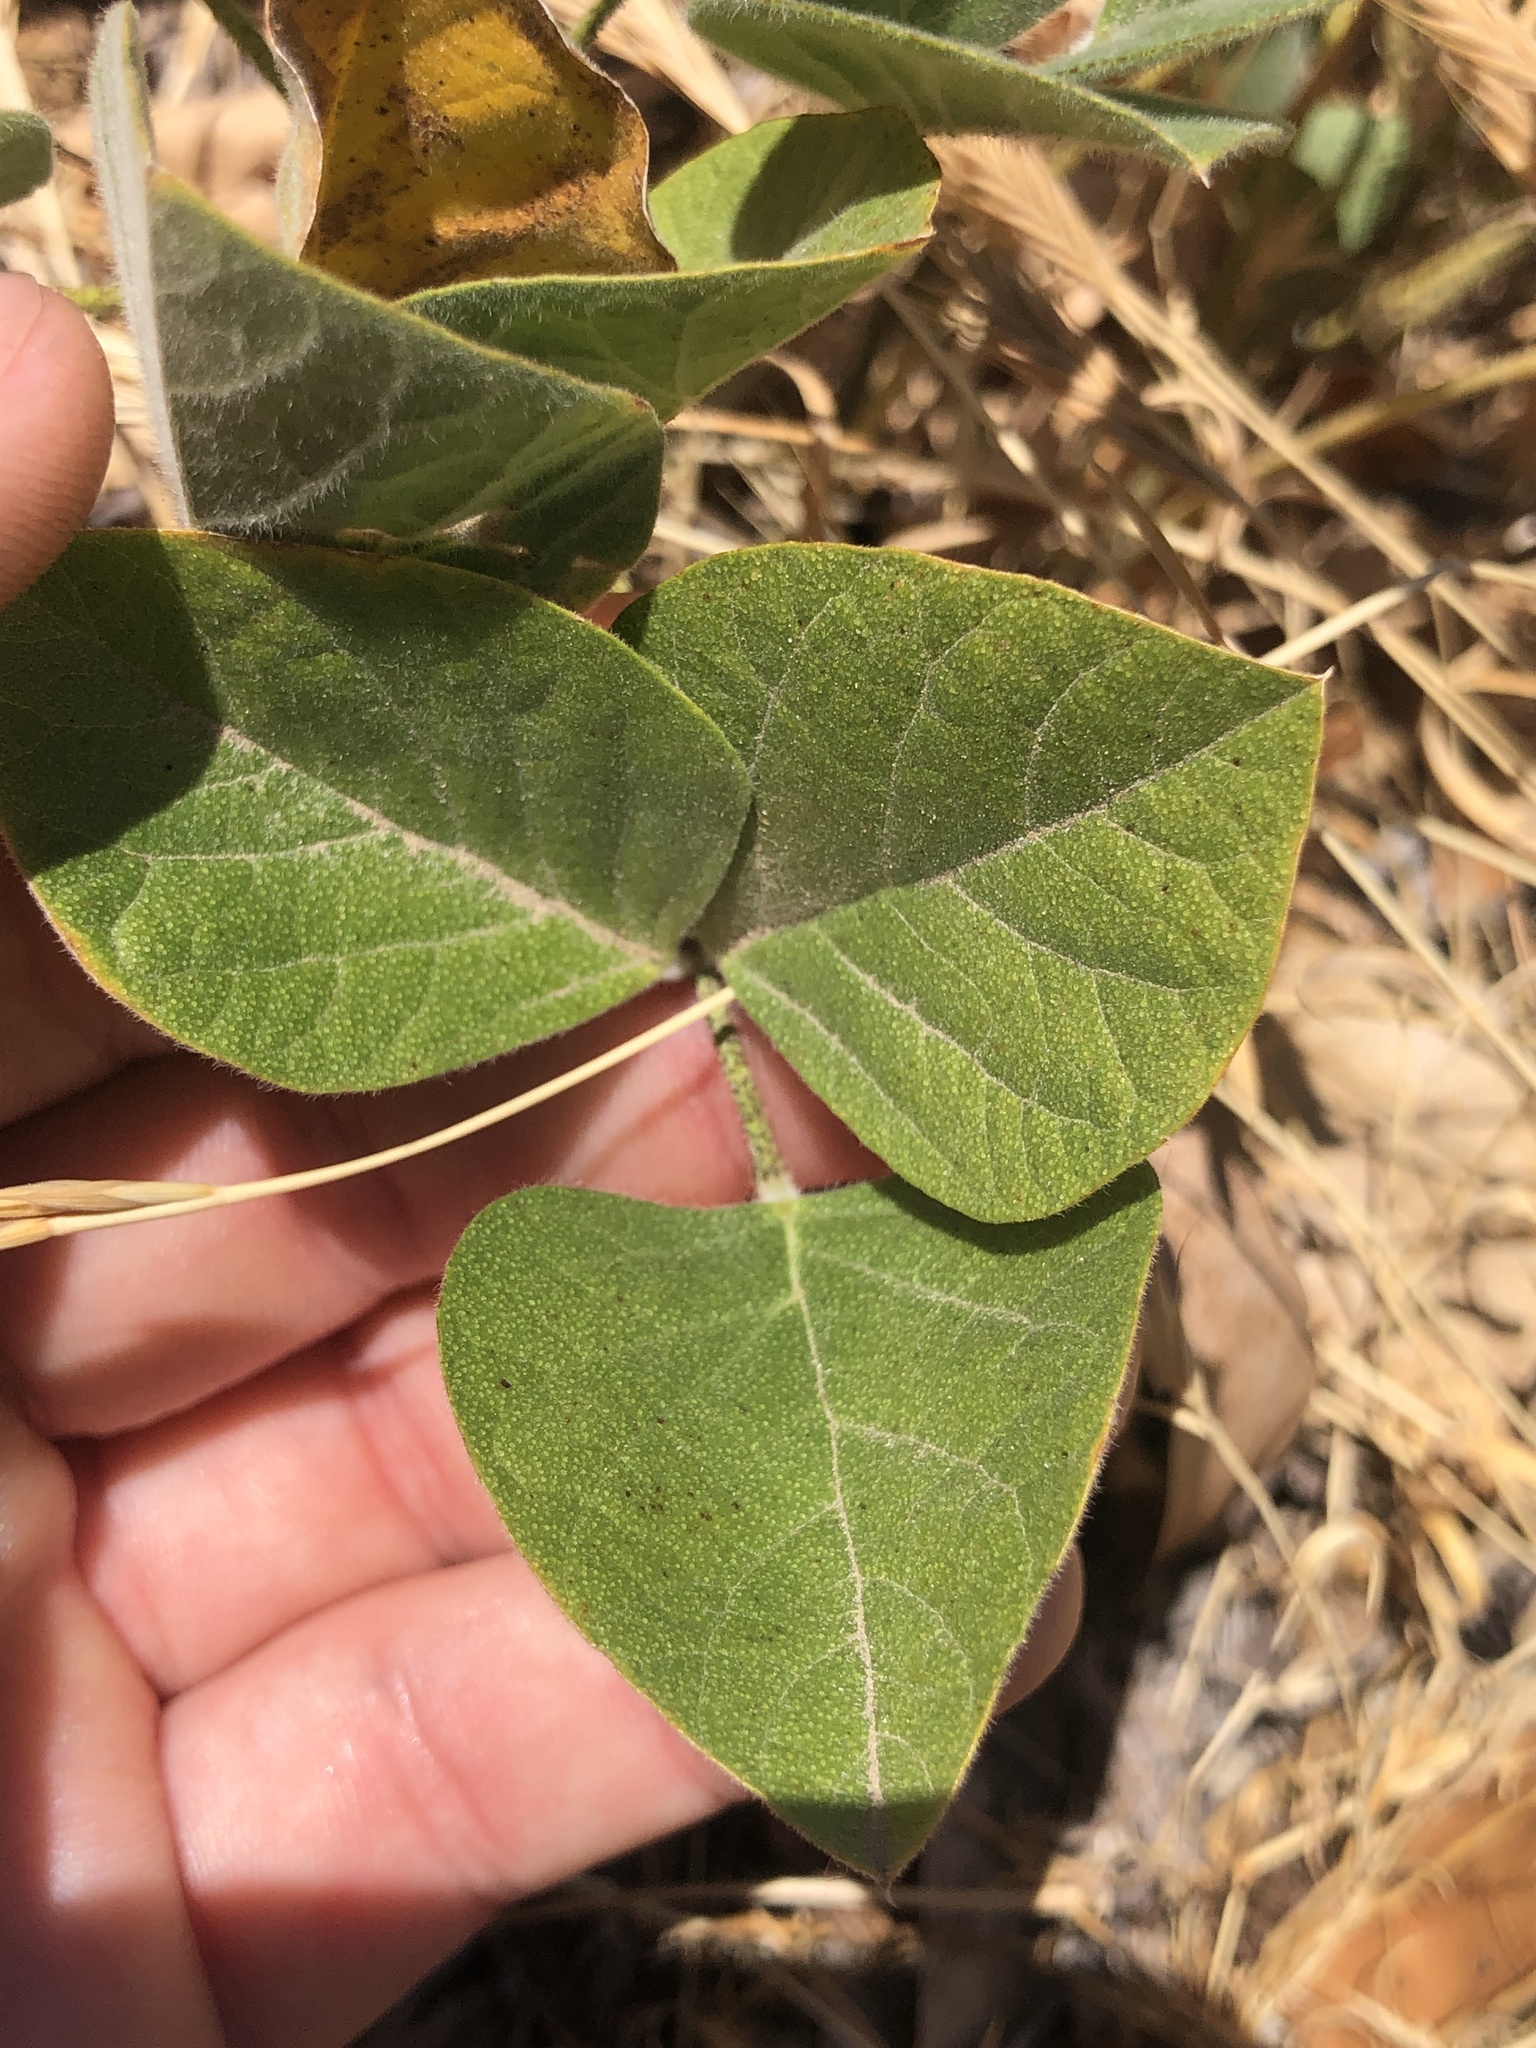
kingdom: Plantae
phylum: Tracheophyta
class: Magnoliopsida
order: Fabales
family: Fabaceae
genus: Hoita
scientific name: Hoita strobilina
